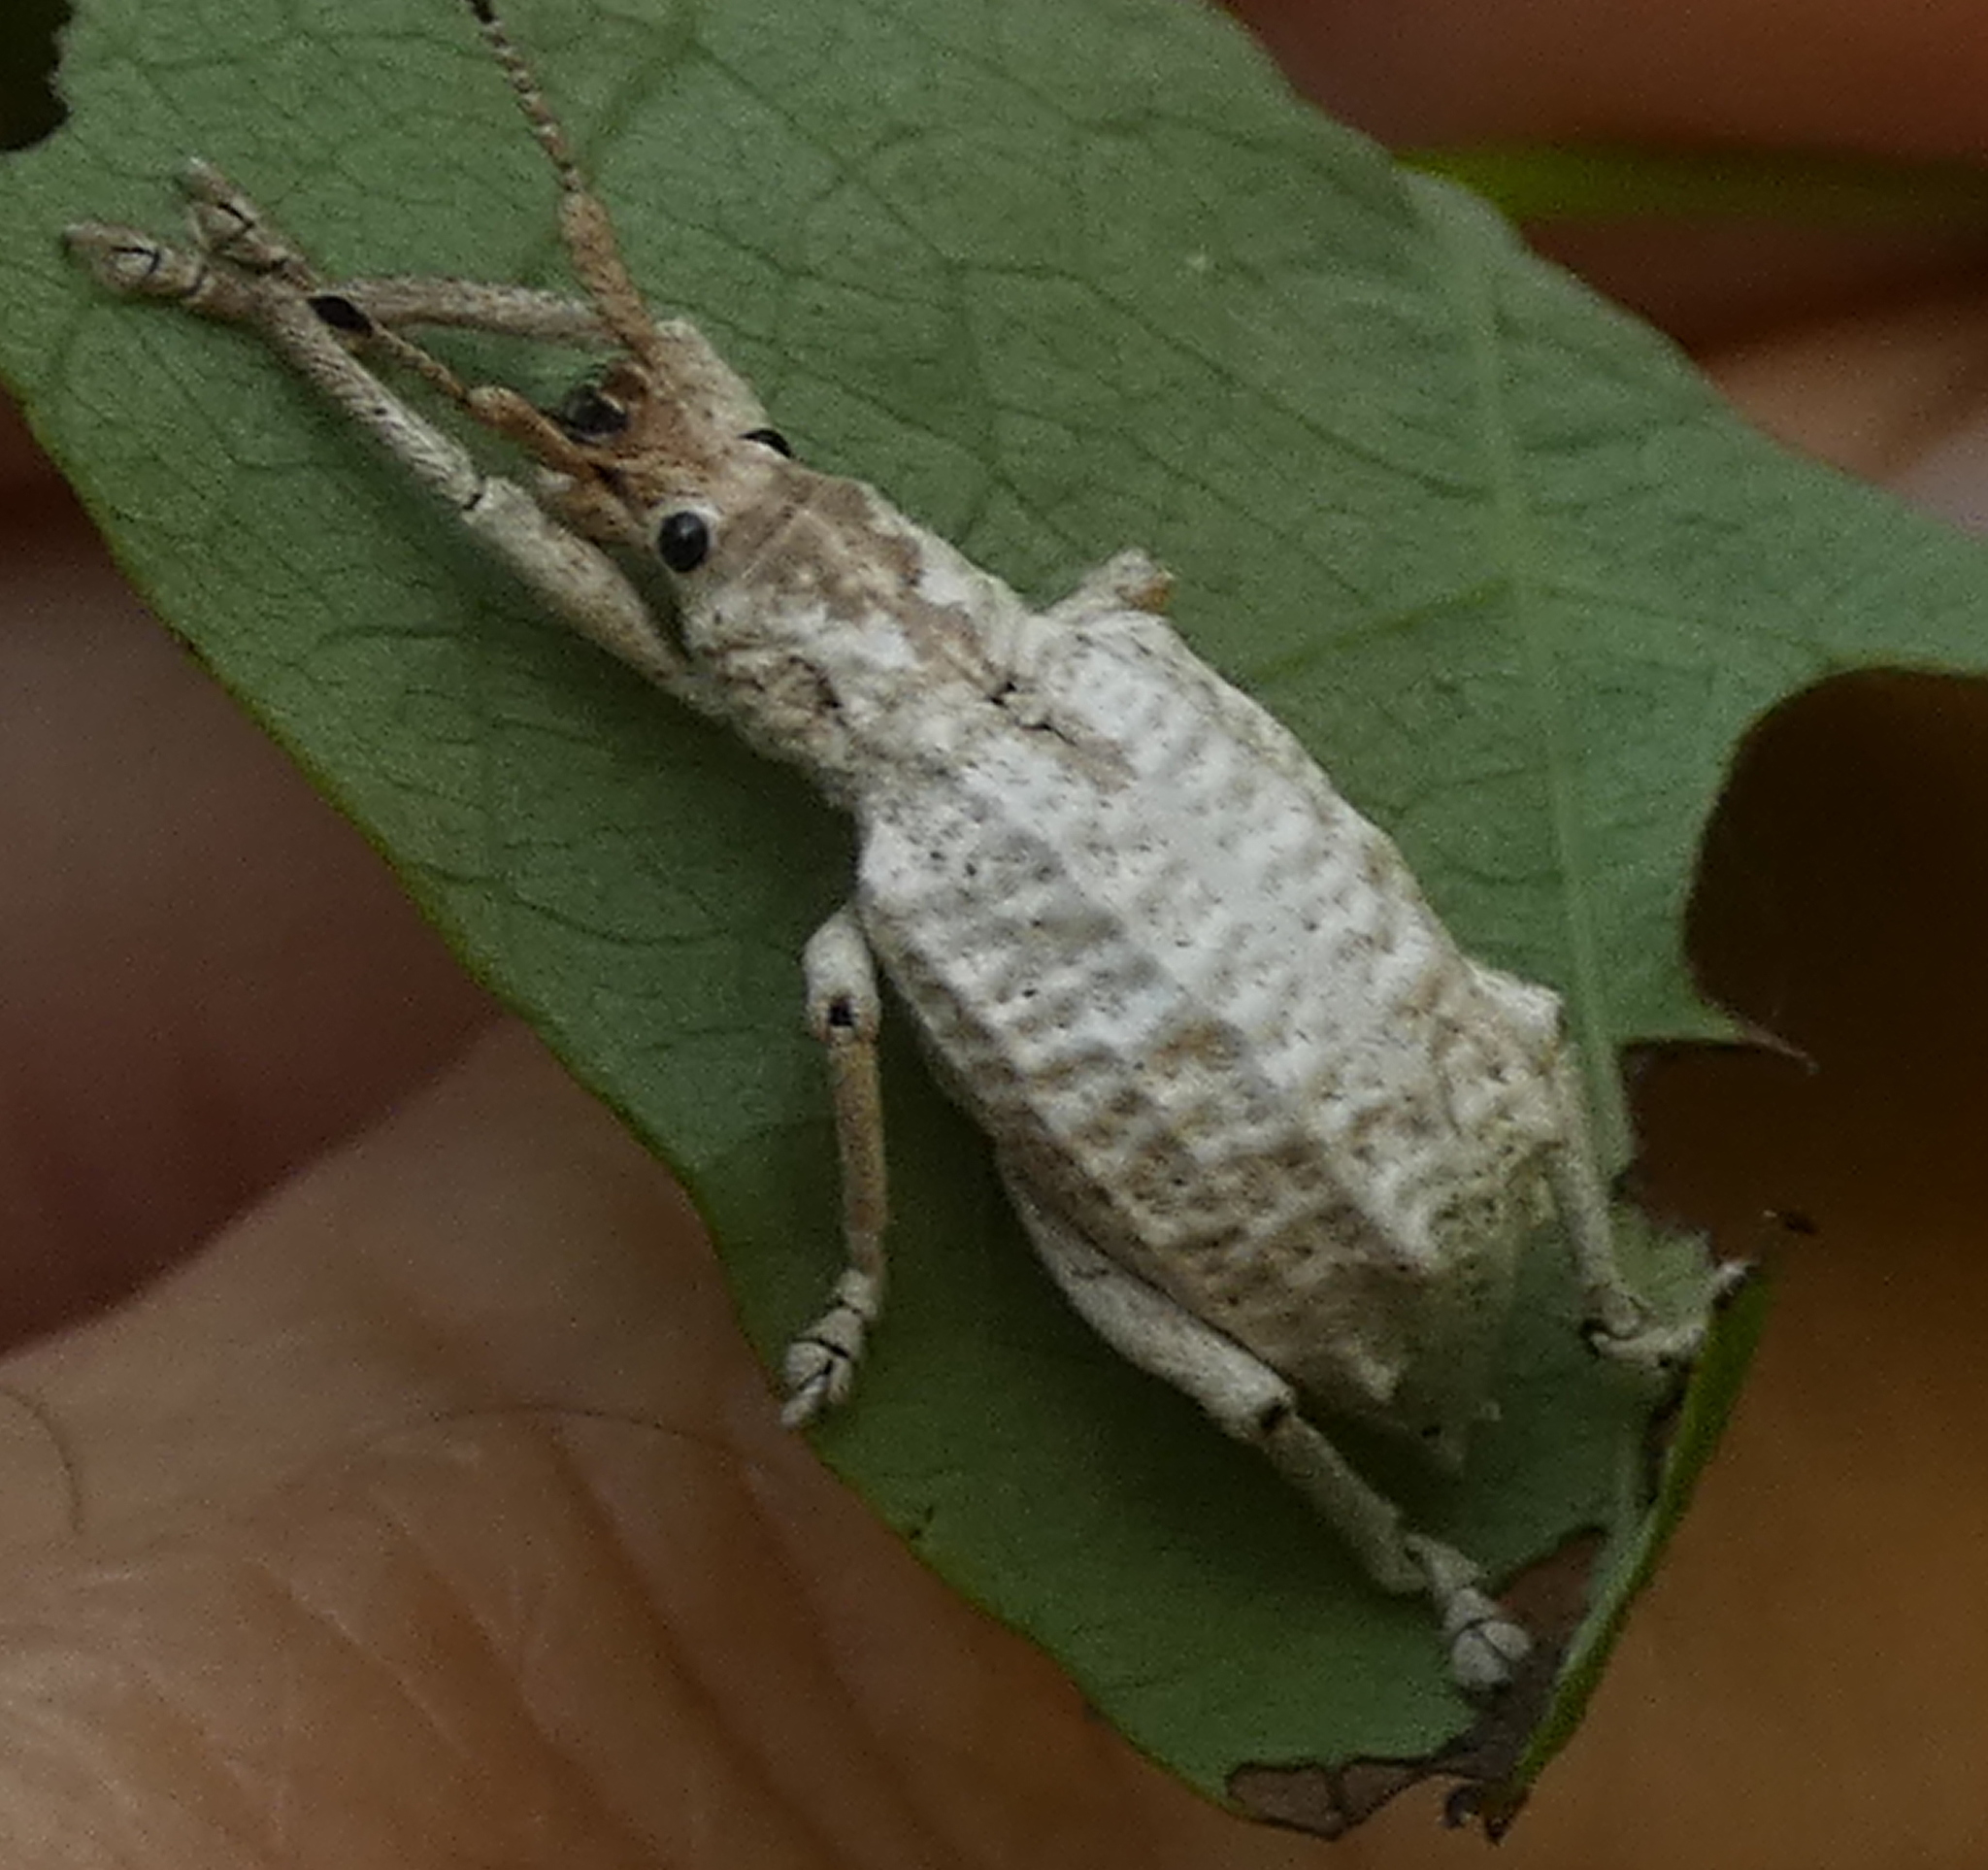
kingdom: Animalia
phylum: Arthropoda
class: Insecta
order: Coleoptera
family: Curculionidae
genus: Compsus
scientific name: Compsus niveus
